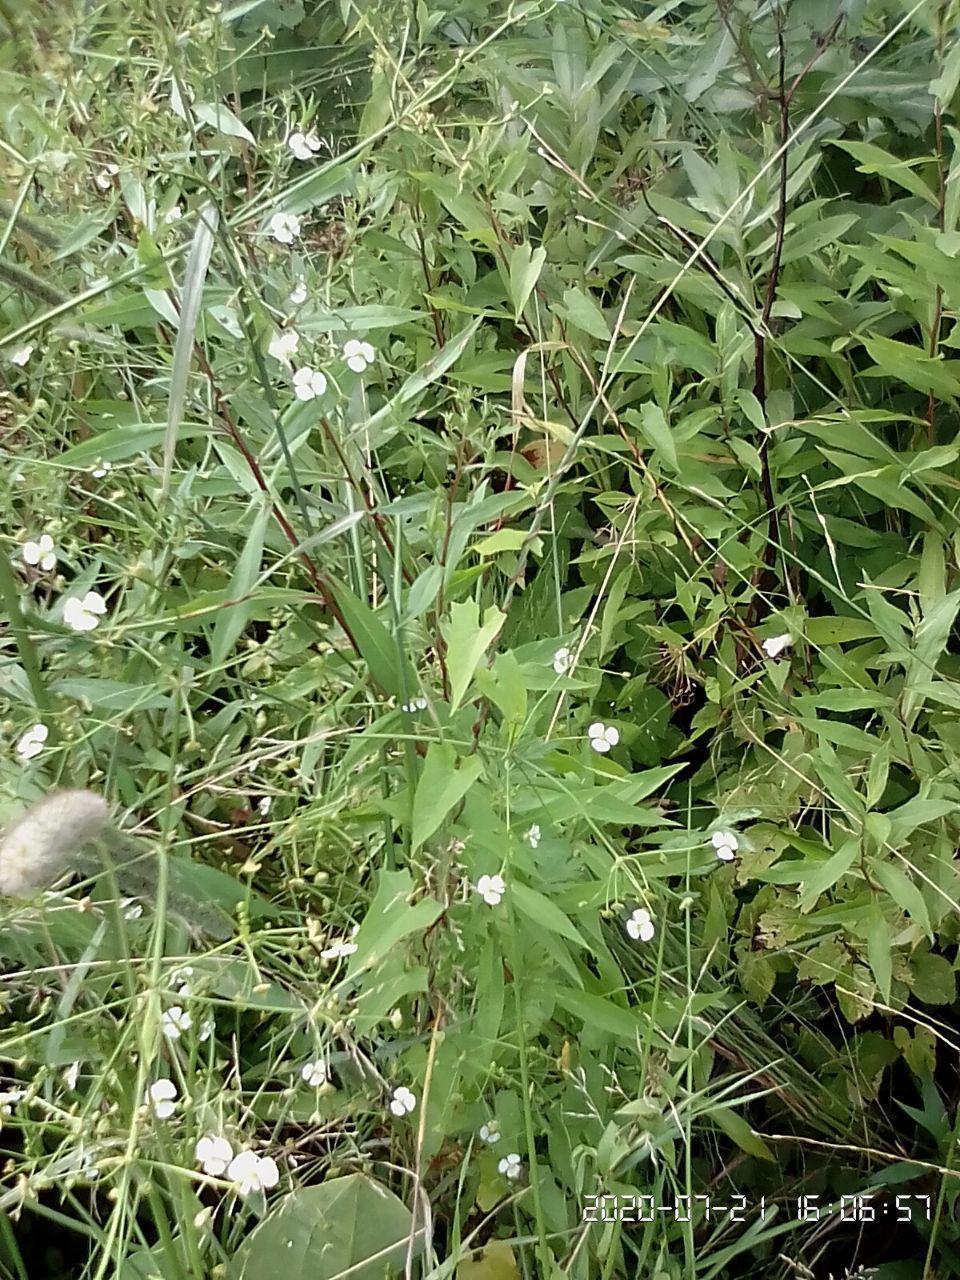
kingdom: Plantae
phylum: Tracheophyta
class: Liliopsida
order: Alismatales
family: Alismataceae
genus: Alisma
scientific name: Alisma plantago-aquatica
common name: Water-plantain
